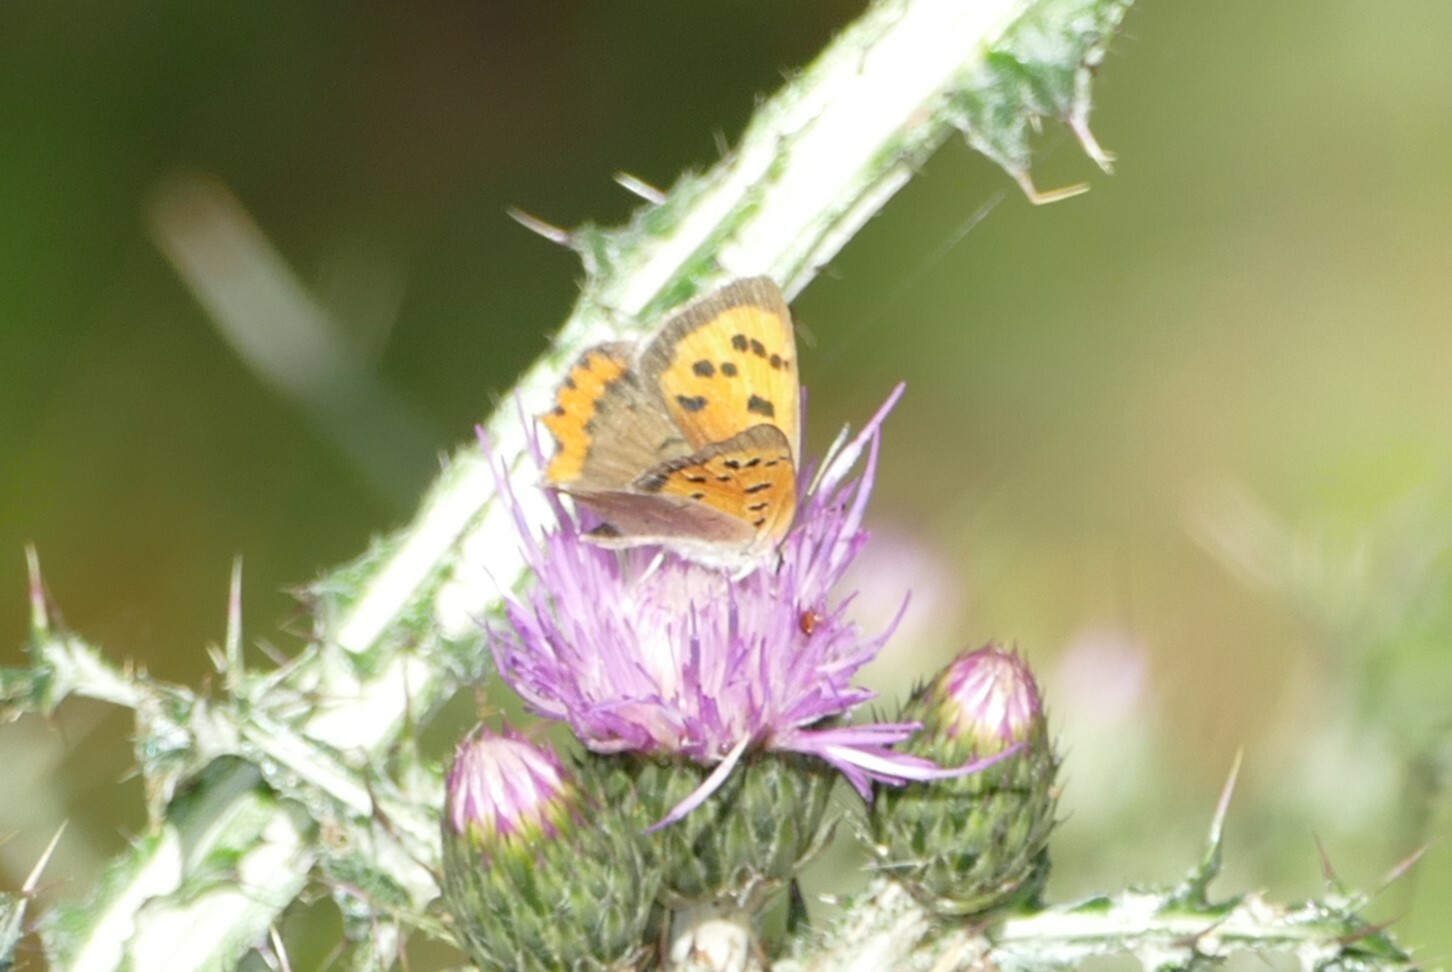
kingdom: Animalia
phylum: Arthropoda
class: Insecta
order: Lepidoptera
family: Lycaenidae
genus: Lycaena
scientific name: Lycaena phlaeas
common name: Small copper
